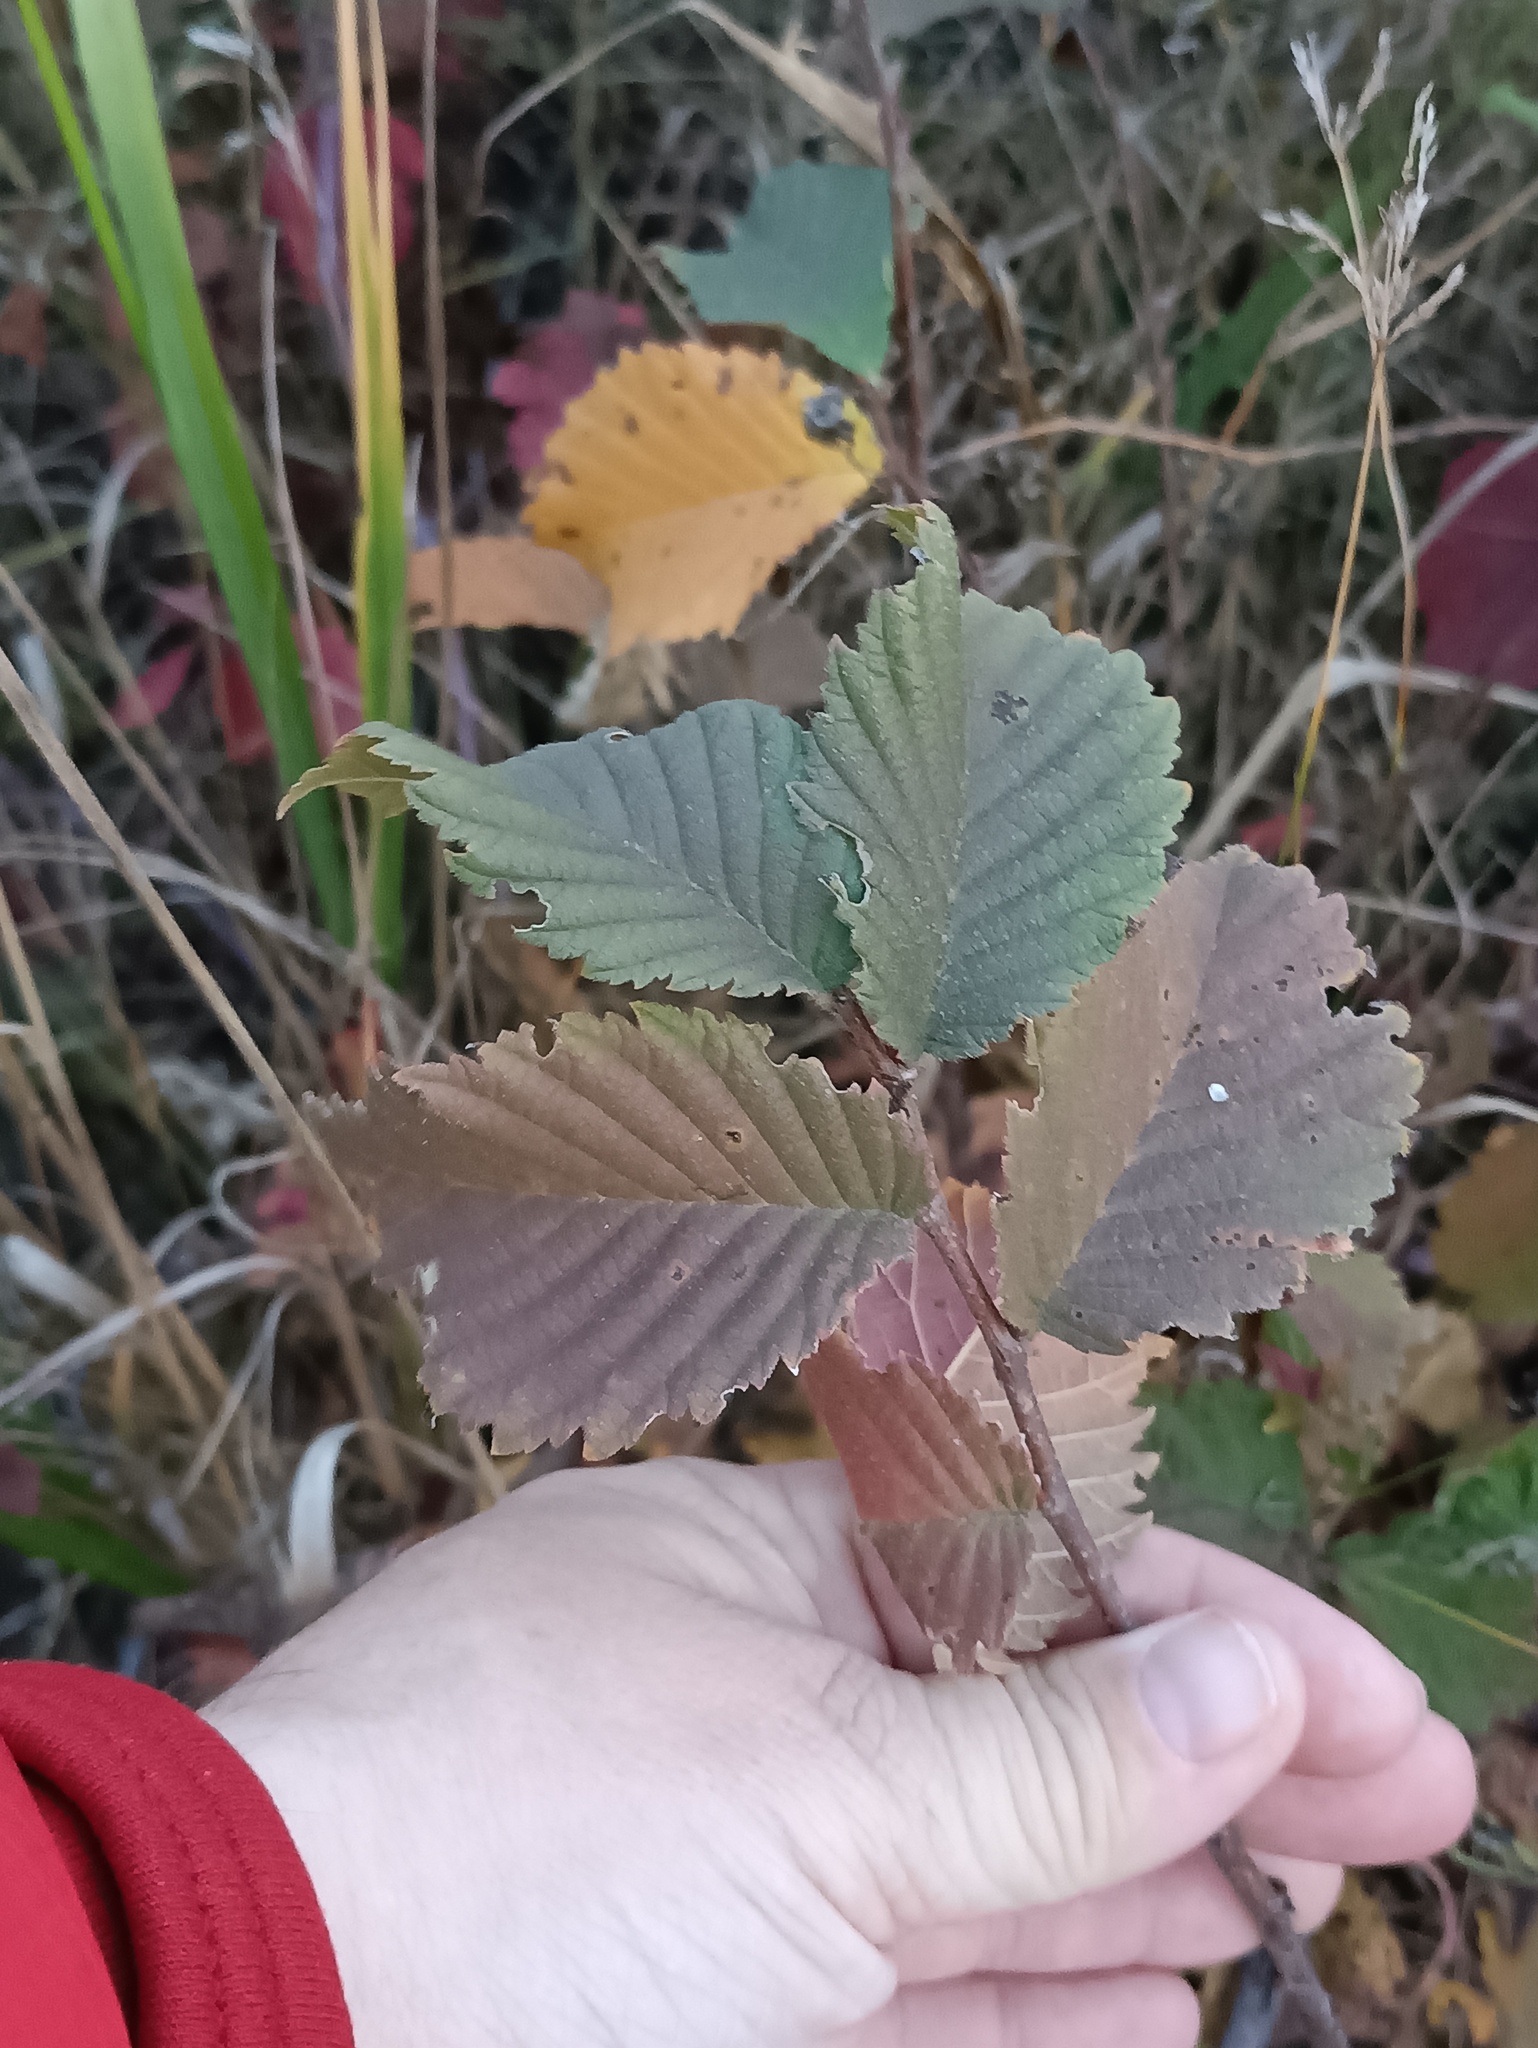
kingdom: Plantae
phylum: Tracheophyta
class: Magnoliopsida
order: Rosales
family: Ulmaceae
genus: Ulmus
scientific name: Ulmus laevis
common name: European white-elm
